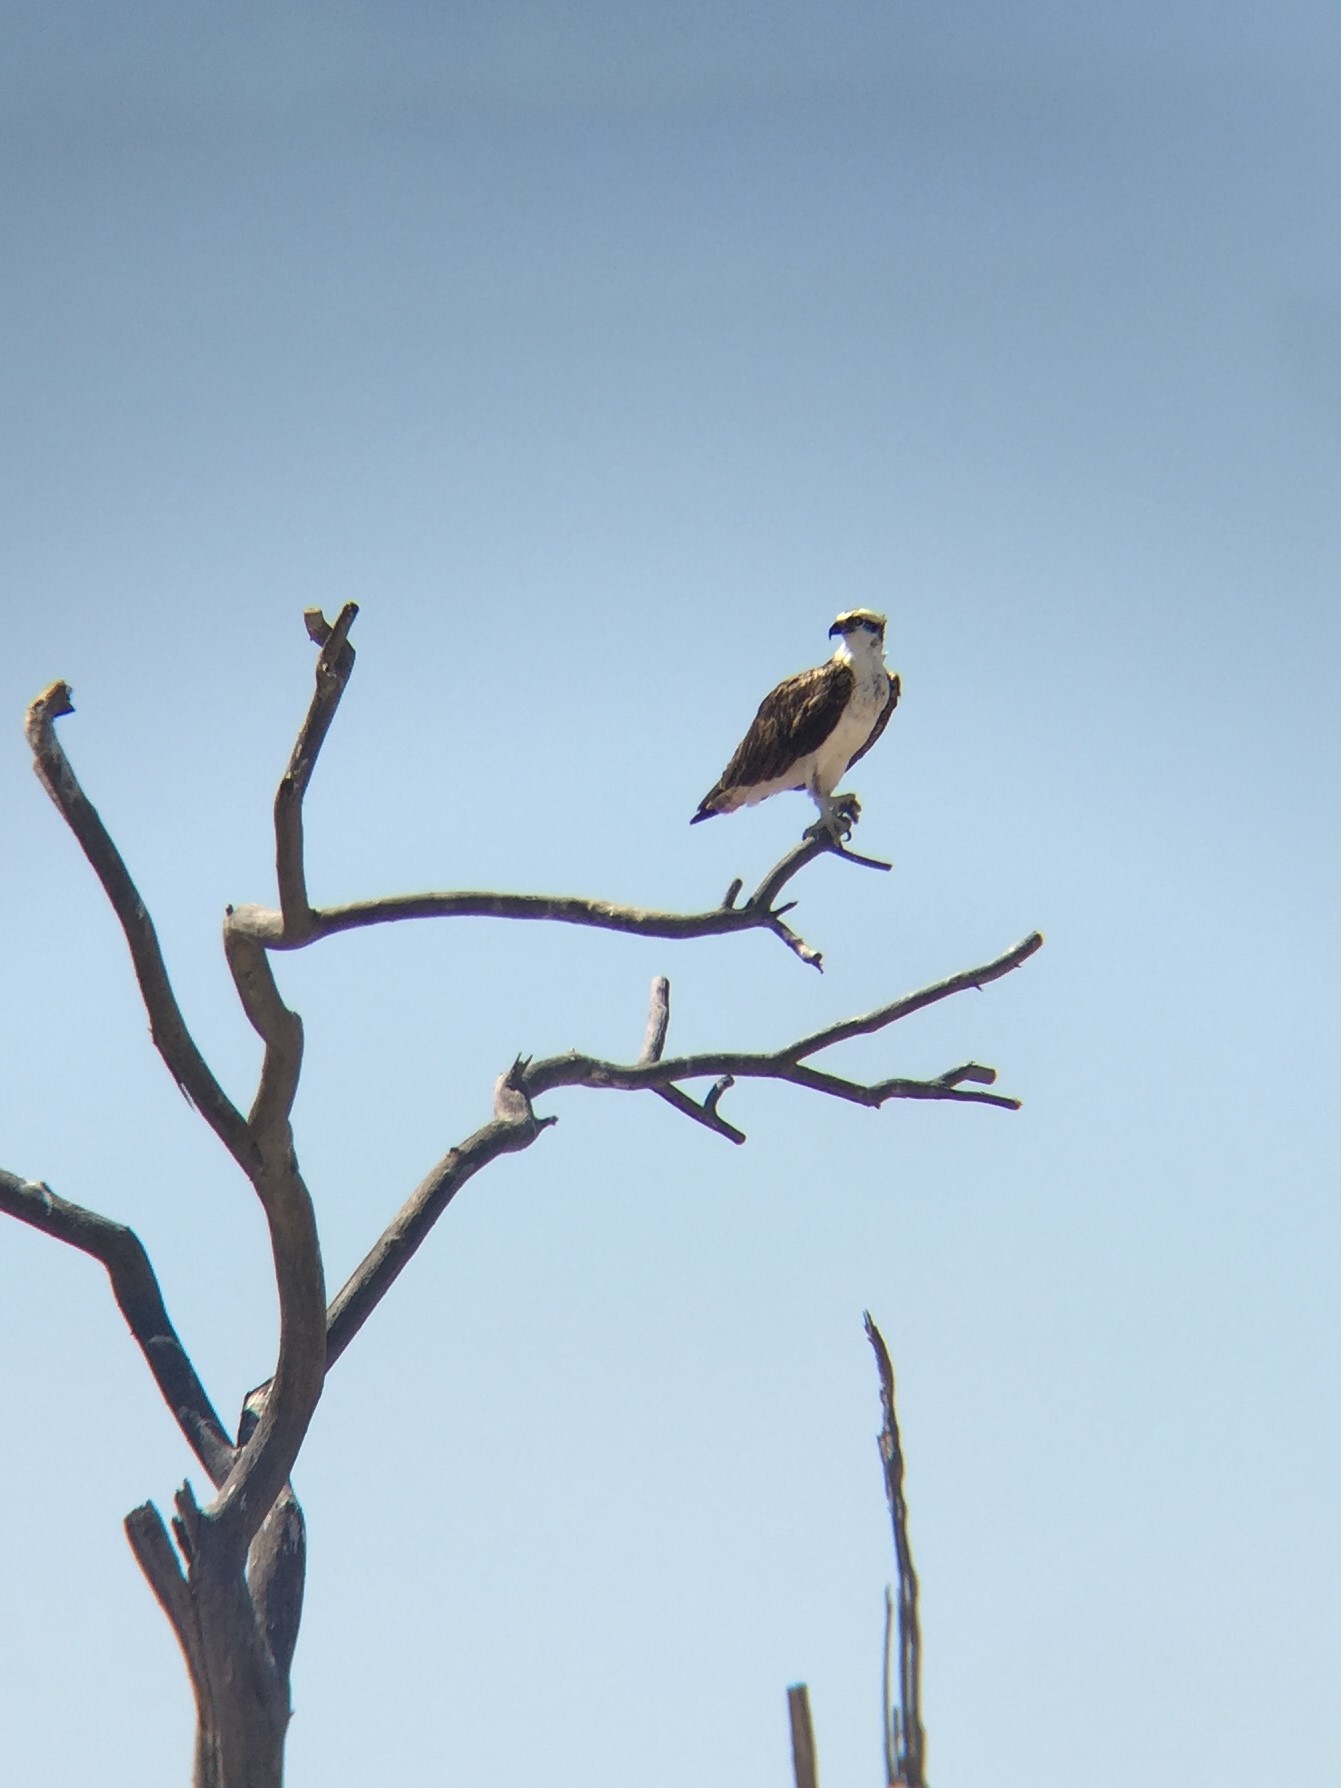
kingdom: Animalia
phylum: Chordata
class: Aves
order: Accipitriformes
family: Pandionidae
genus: Pandion
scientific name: Pandion haliaetus
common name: Osprey
